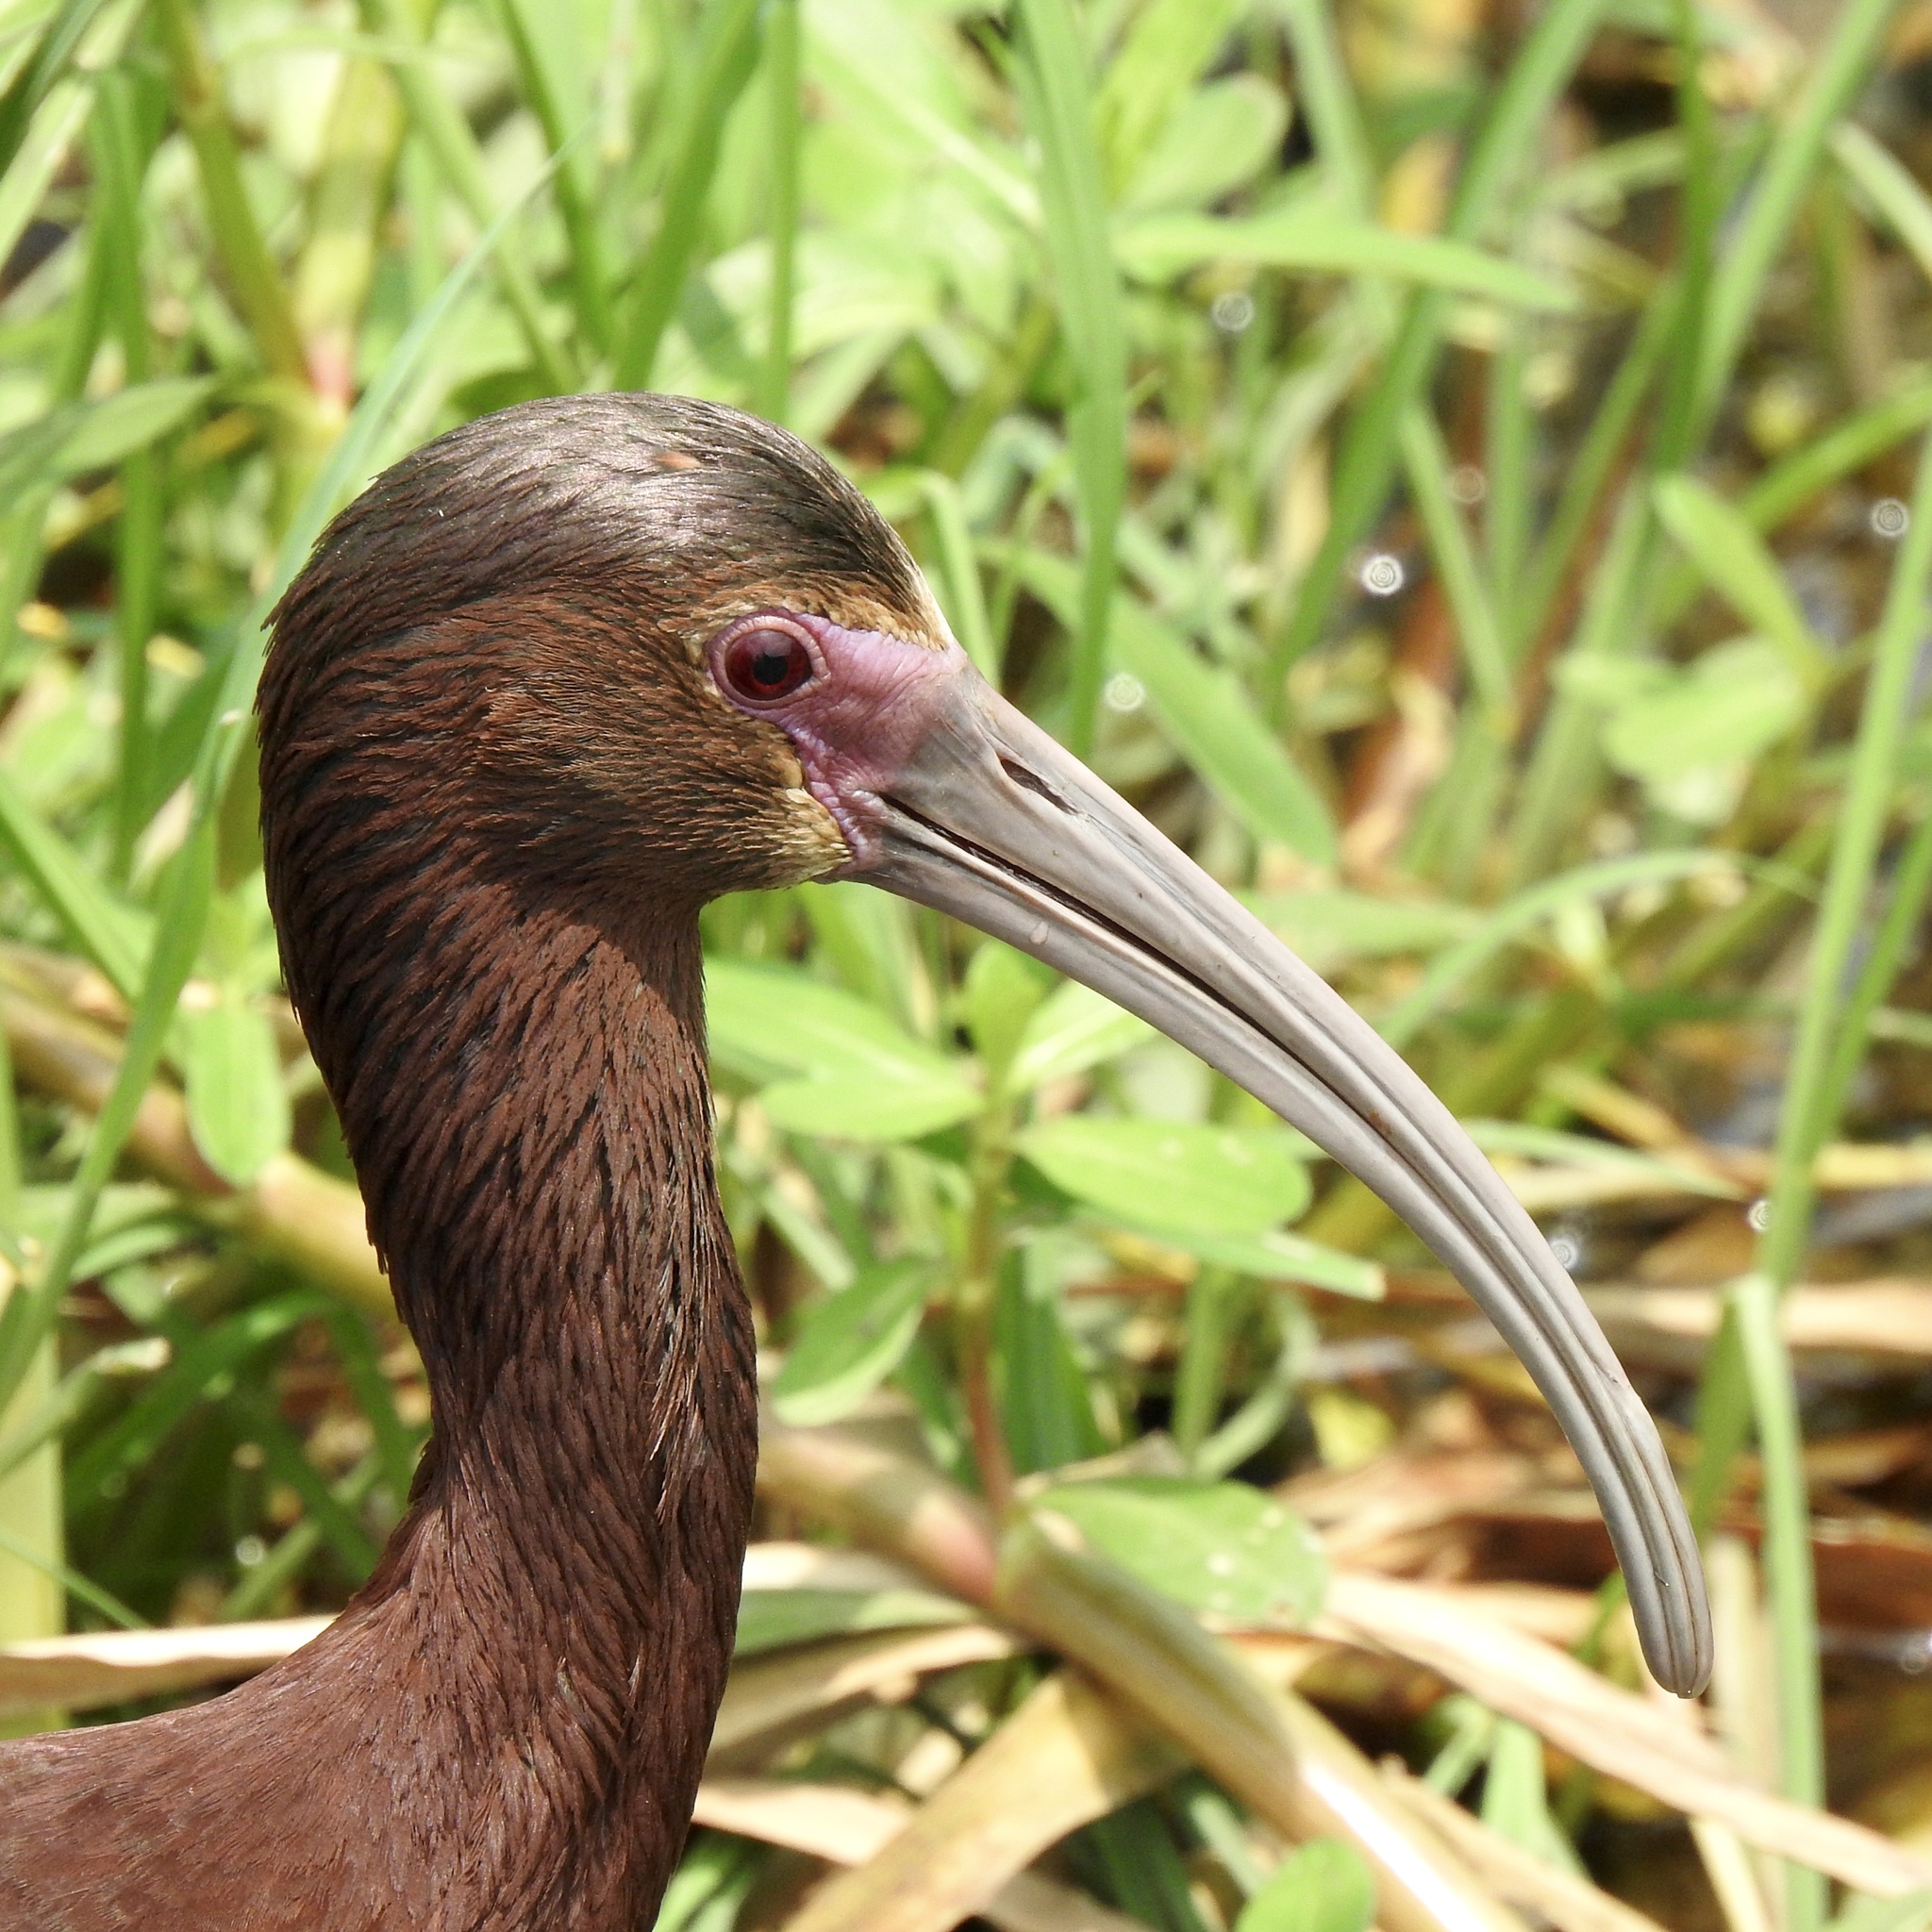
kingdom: Animalia
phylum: Chordata
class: Aves
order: Pelecaniformes
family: Threskiornithidae
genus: Plegadis
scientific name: Plegadis chihi
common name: White-faced ibis
